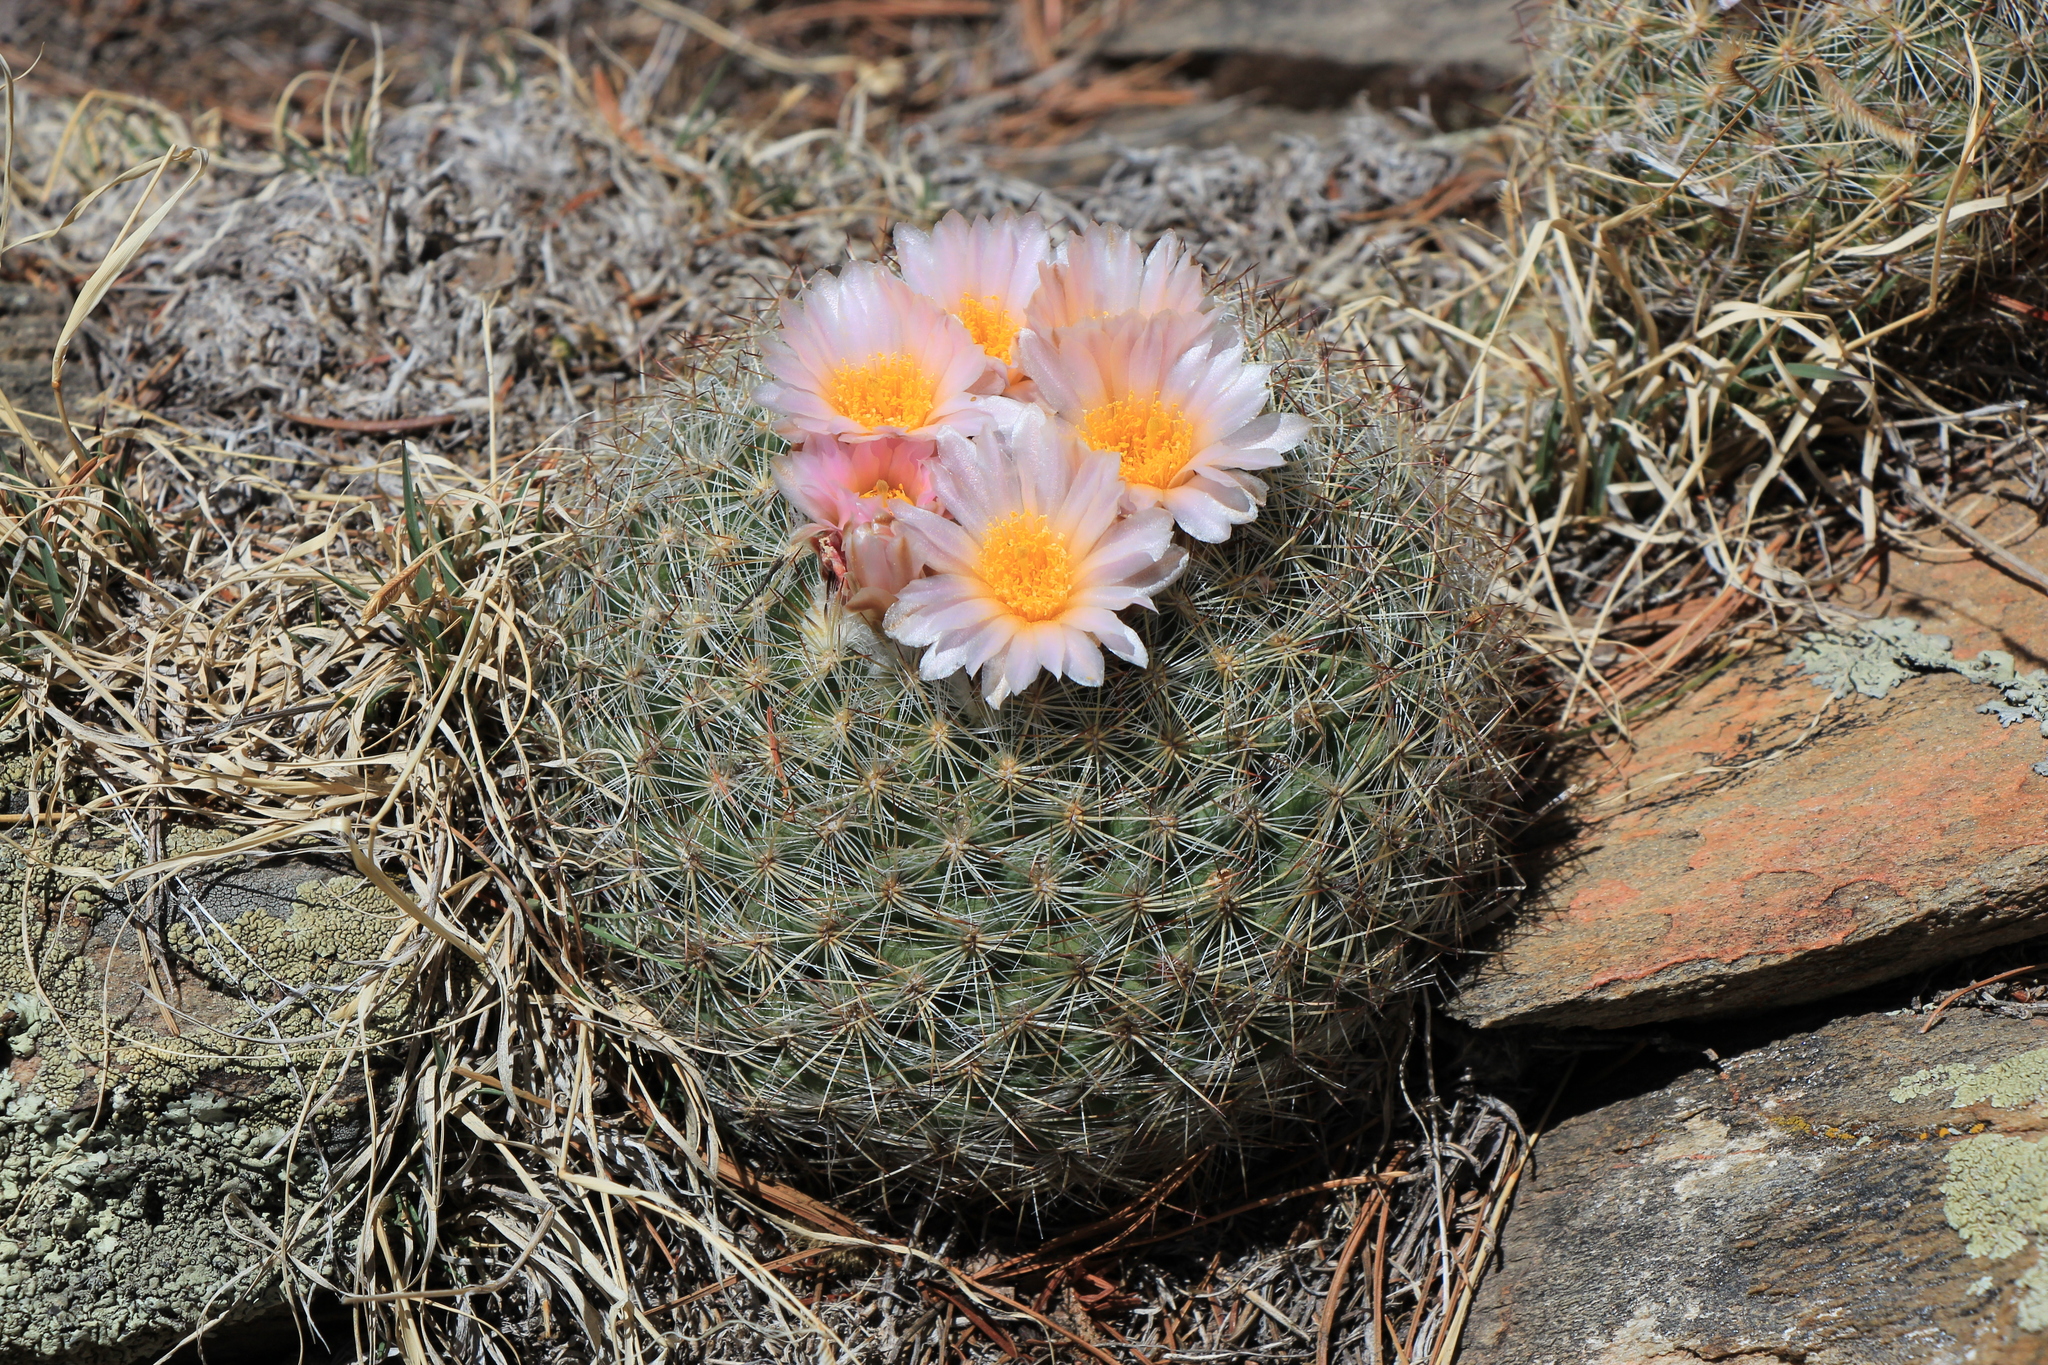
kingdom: Plantae
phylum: Tracheophyta
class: Magnoliopsida
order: Caryophyllales
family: Cactaceae
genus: Pediocactus
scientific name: Pediocactus simpsonii
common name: Simpson's hedgehog cactus
